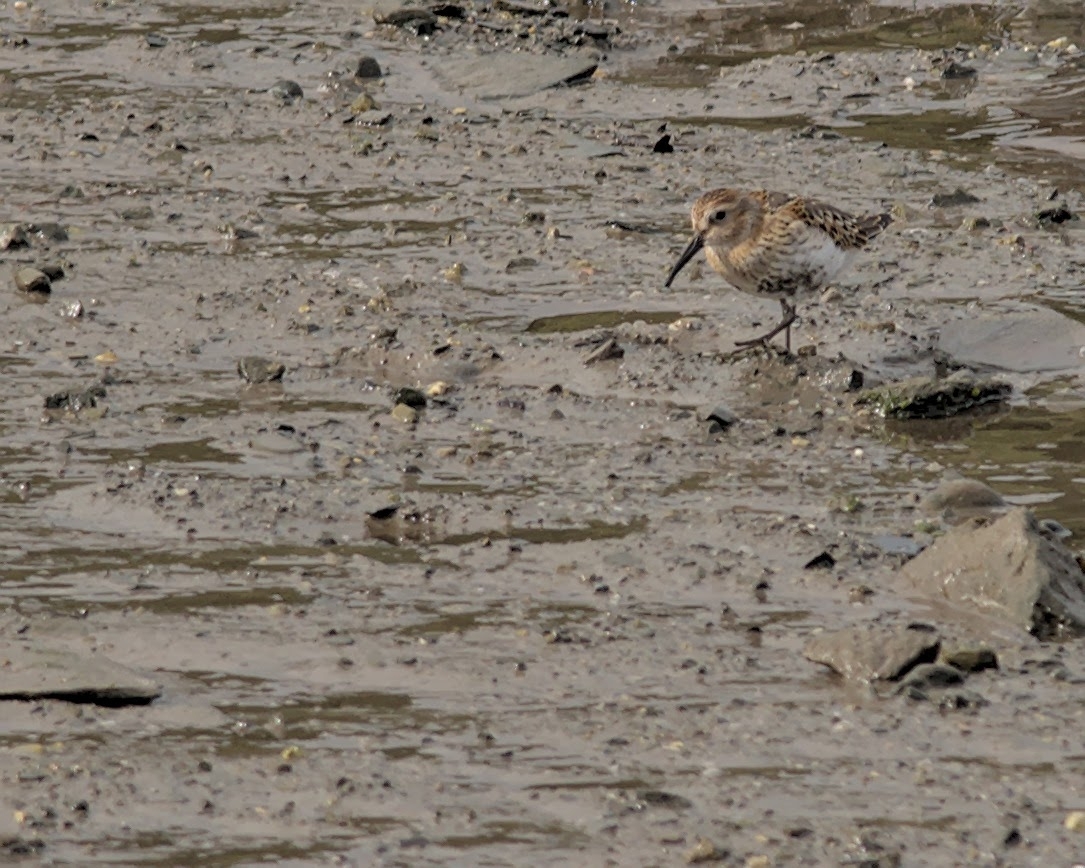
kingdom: Animalia
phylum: Chordata
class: Aves
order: Charadriiformes
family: Scolopacidae
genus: Calidris
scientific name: Calidris alpina
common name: Dunlin
